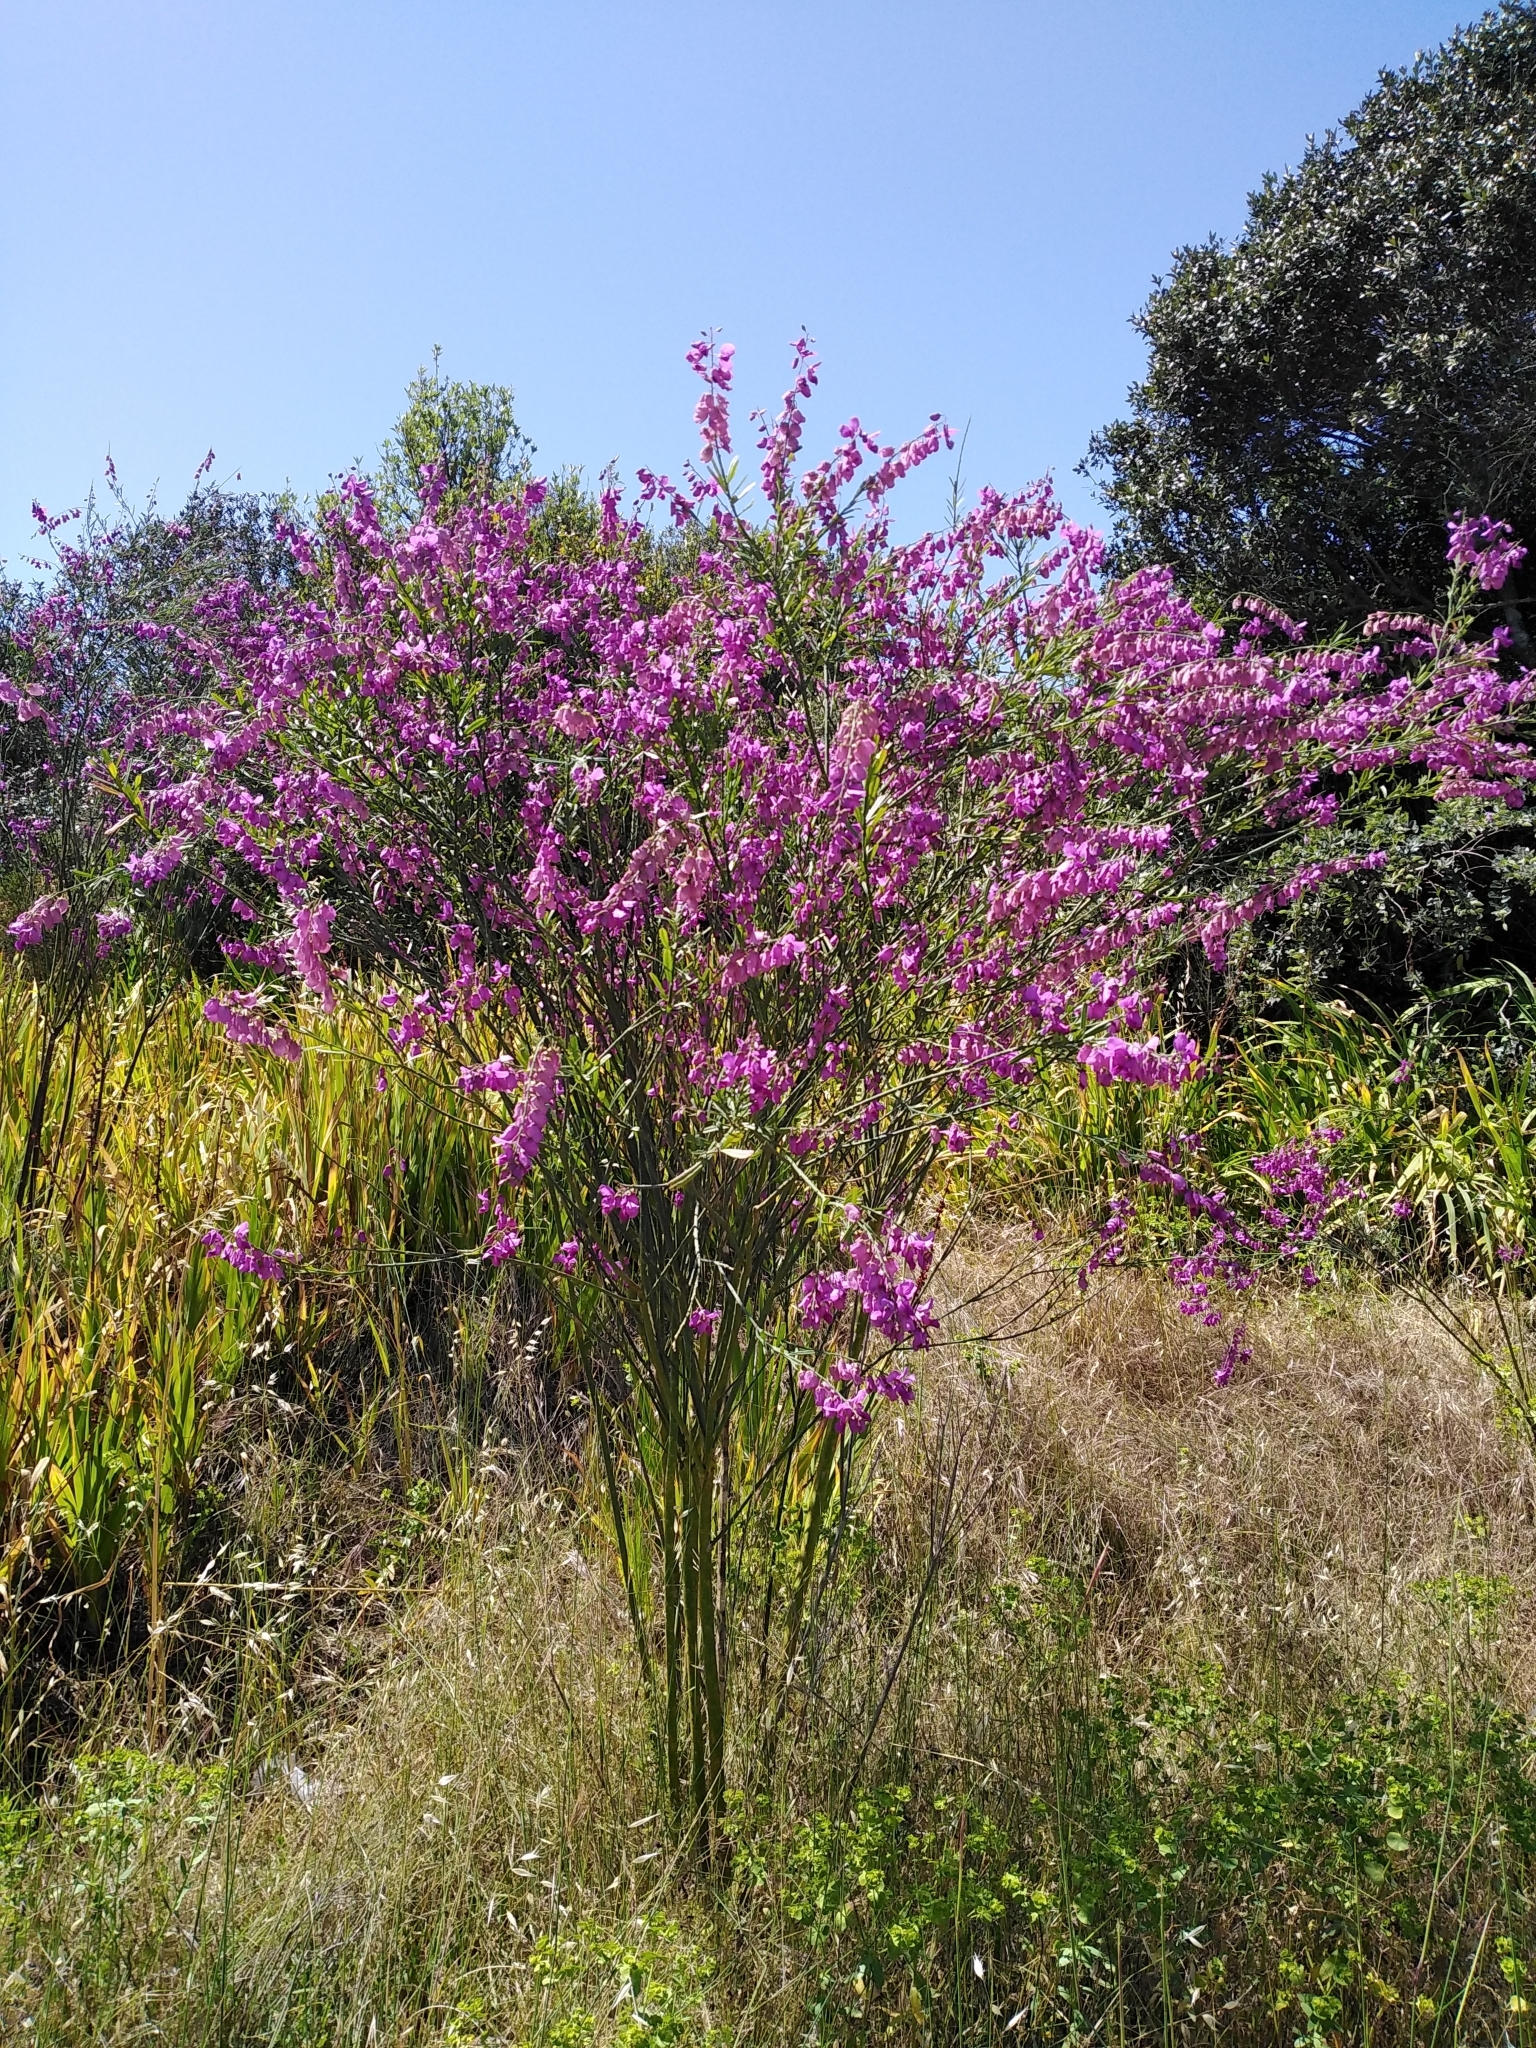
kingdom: Plantae
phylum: Tracheophyta
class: Magnoliopsida
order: Fabales
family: Polygalaceae
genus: Polygala
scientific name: Polygala virgata
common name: Milkwort
